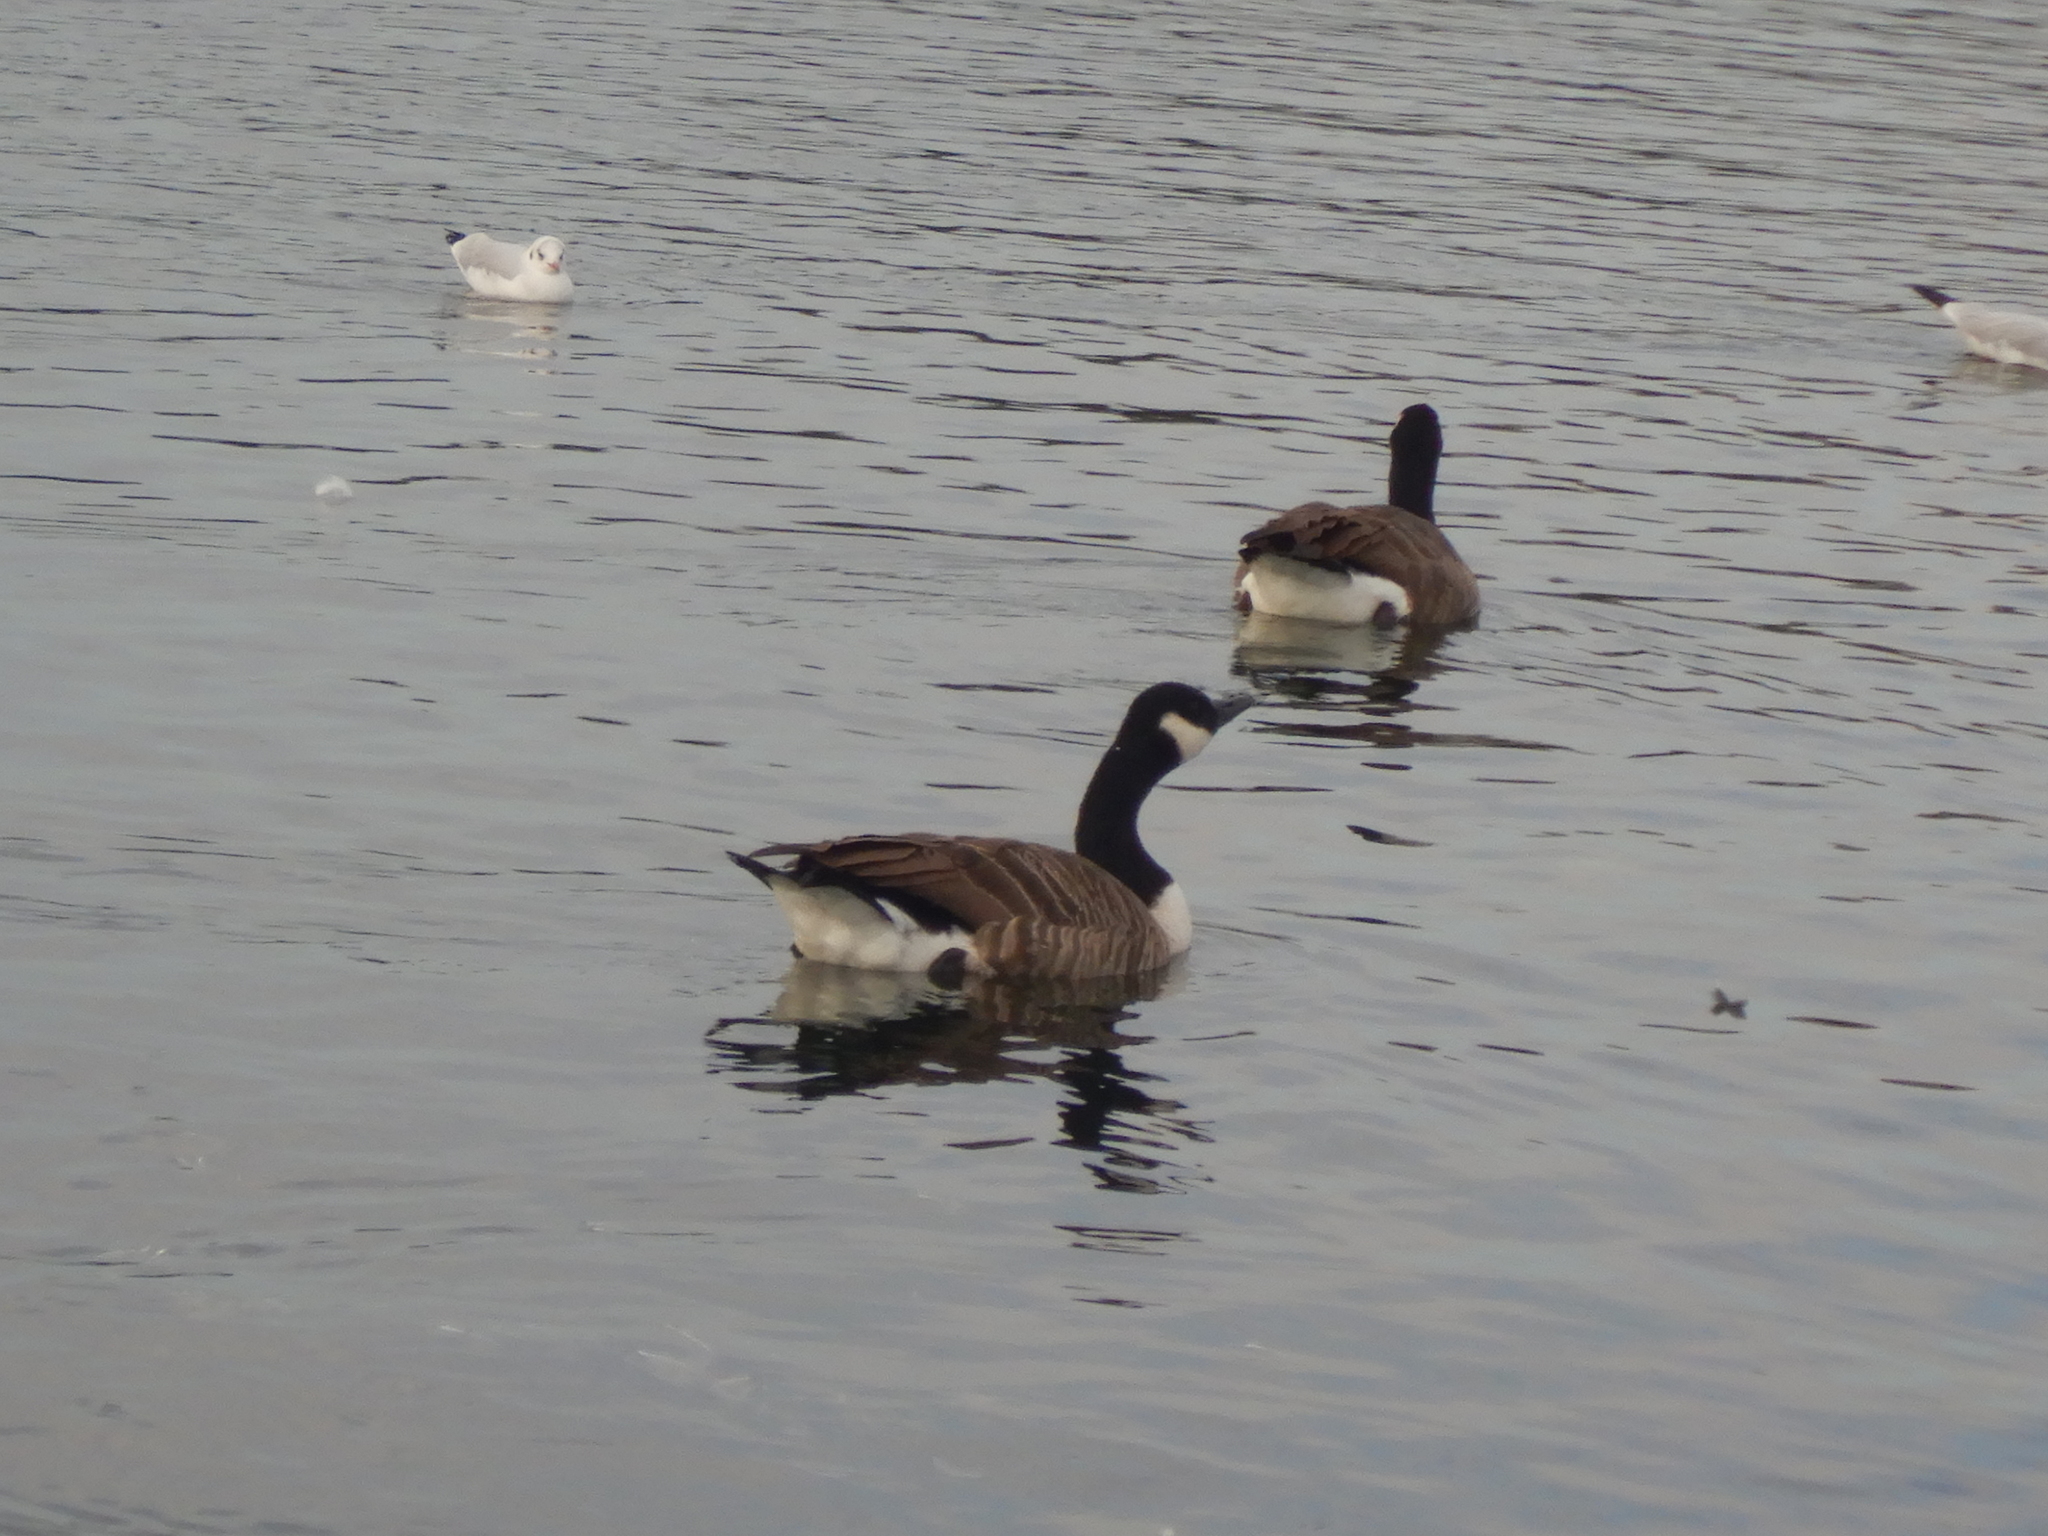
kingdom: Animalia
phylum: Chordata
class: Aves
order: Anseriformes
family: Anatidae
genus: Branta
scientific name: Branta canadensis
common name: Canada goose
